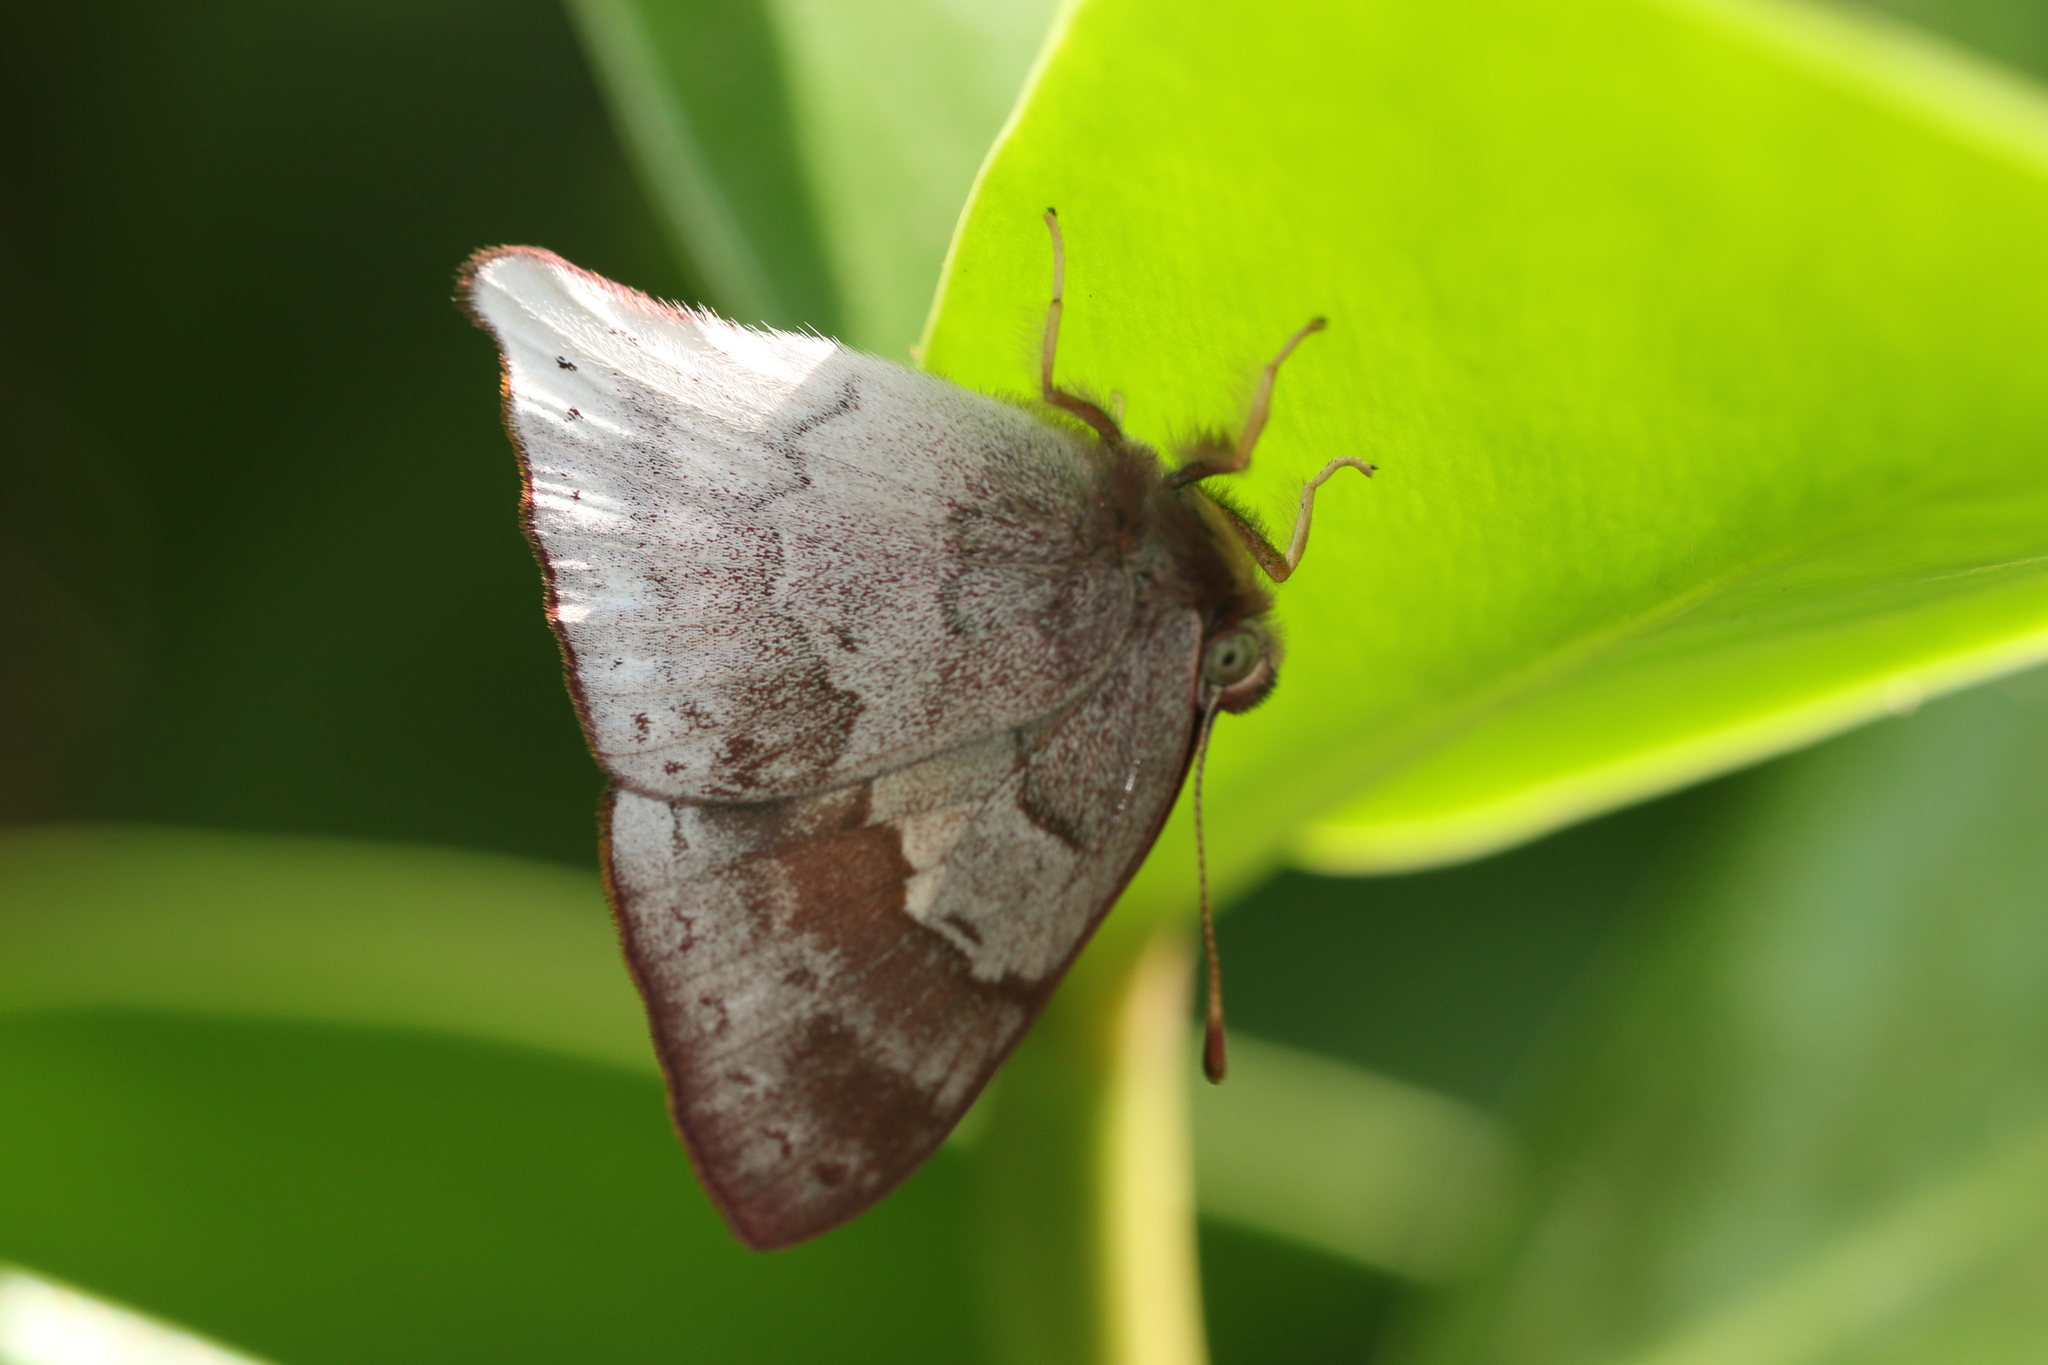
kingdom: Animalia
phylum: Arthropoda
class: Insecta
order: Lepidoptera
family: Lycaenidae
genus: Euselasia
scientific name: Euselasia thucydides
